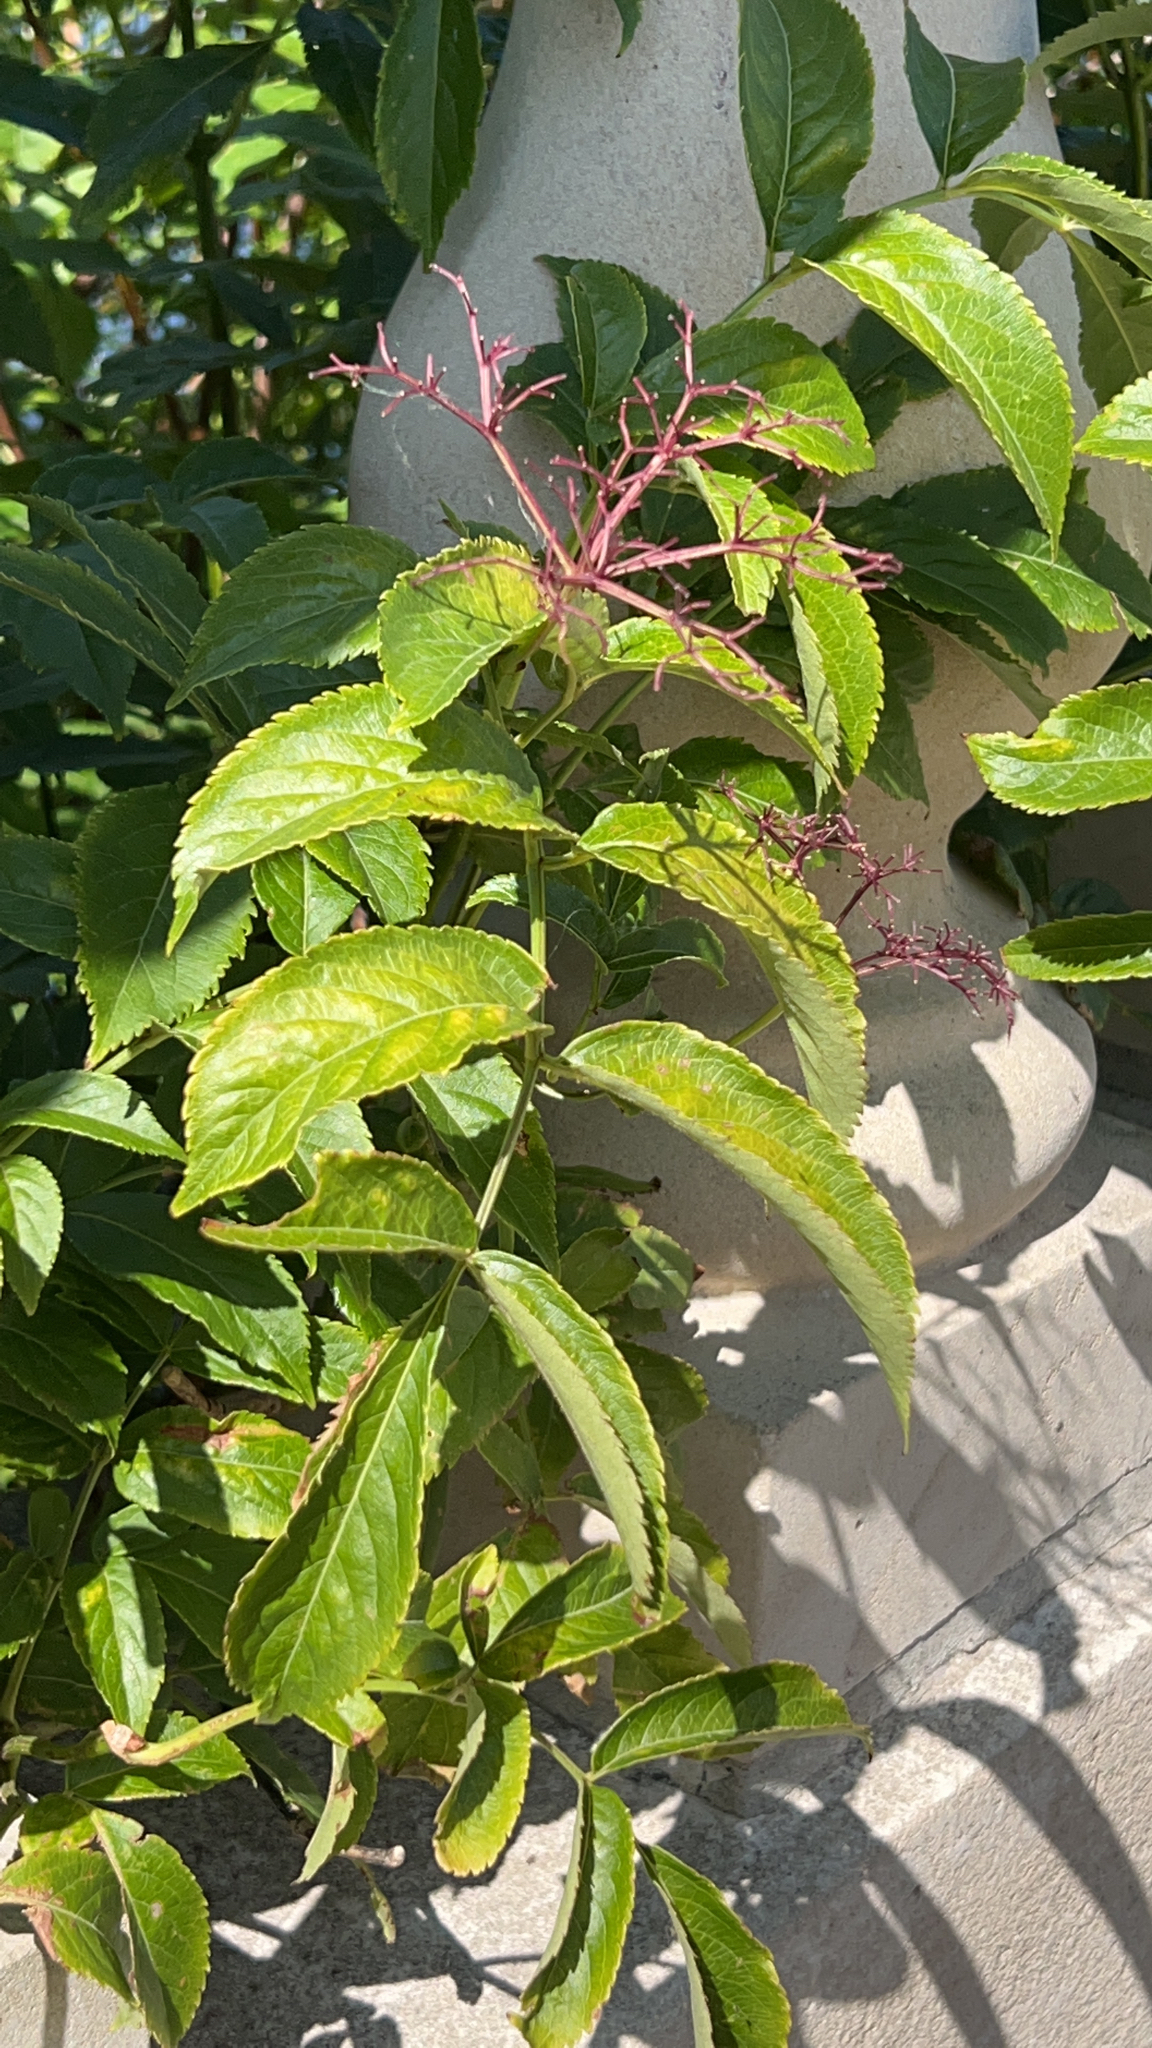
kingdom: Plantae
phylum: Tracheophyta
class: Magnoliopsida
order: Dipsacales
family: Viburnaceae
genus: Sambucus
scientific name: Sambucus canadensis
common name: American elder
